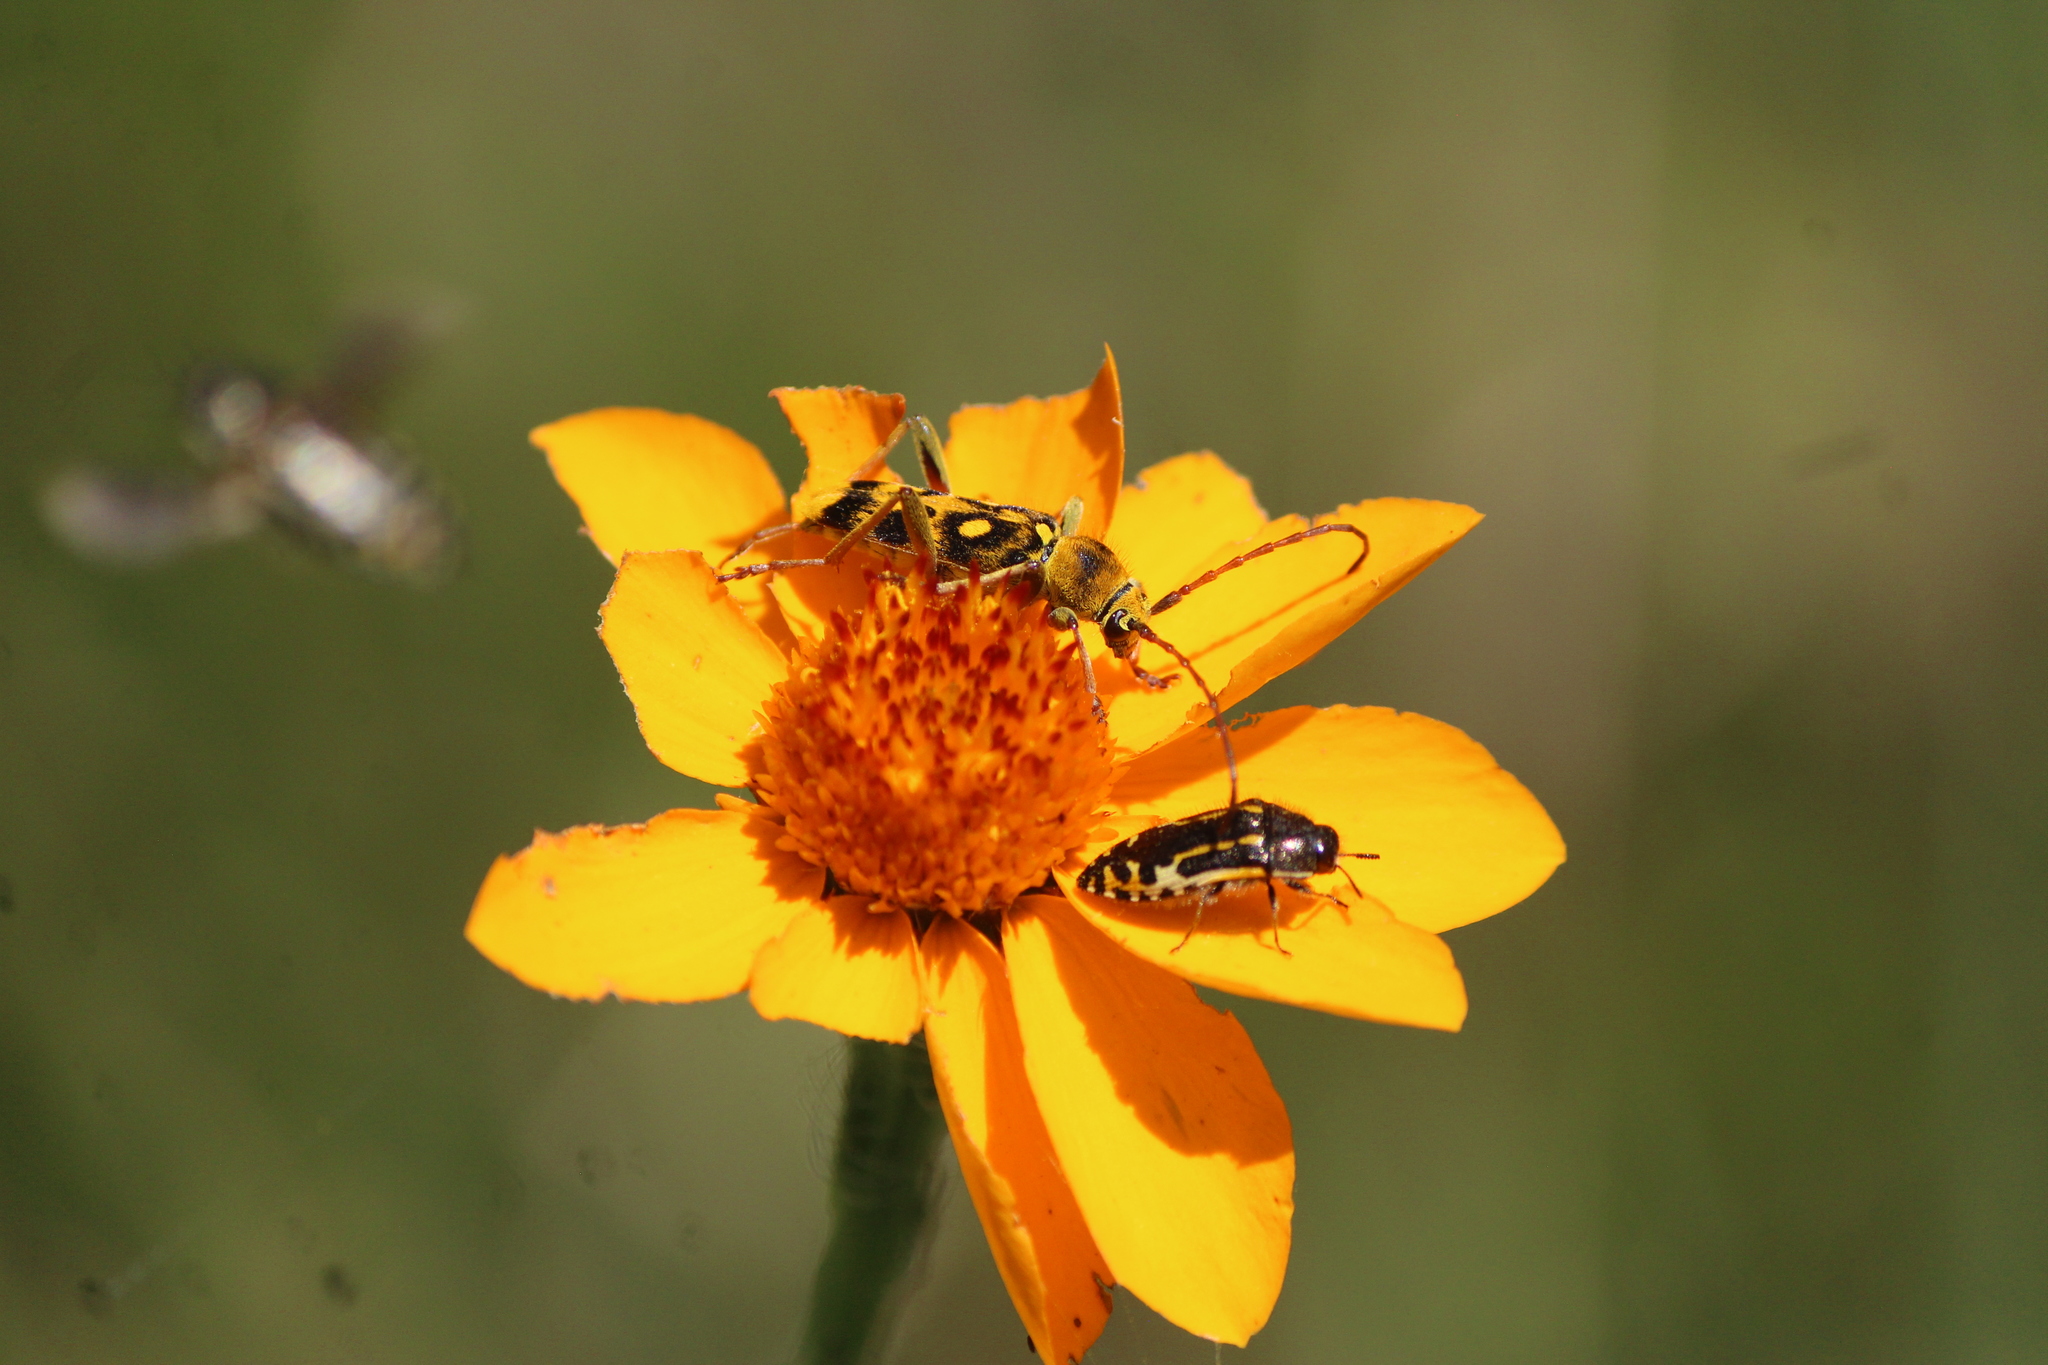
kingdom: Animalia
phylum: Arthropoda
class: Insecta
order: Coleoptera
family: Cerambycidae
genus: Ochraethes
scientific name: Ochraethes sommeri
